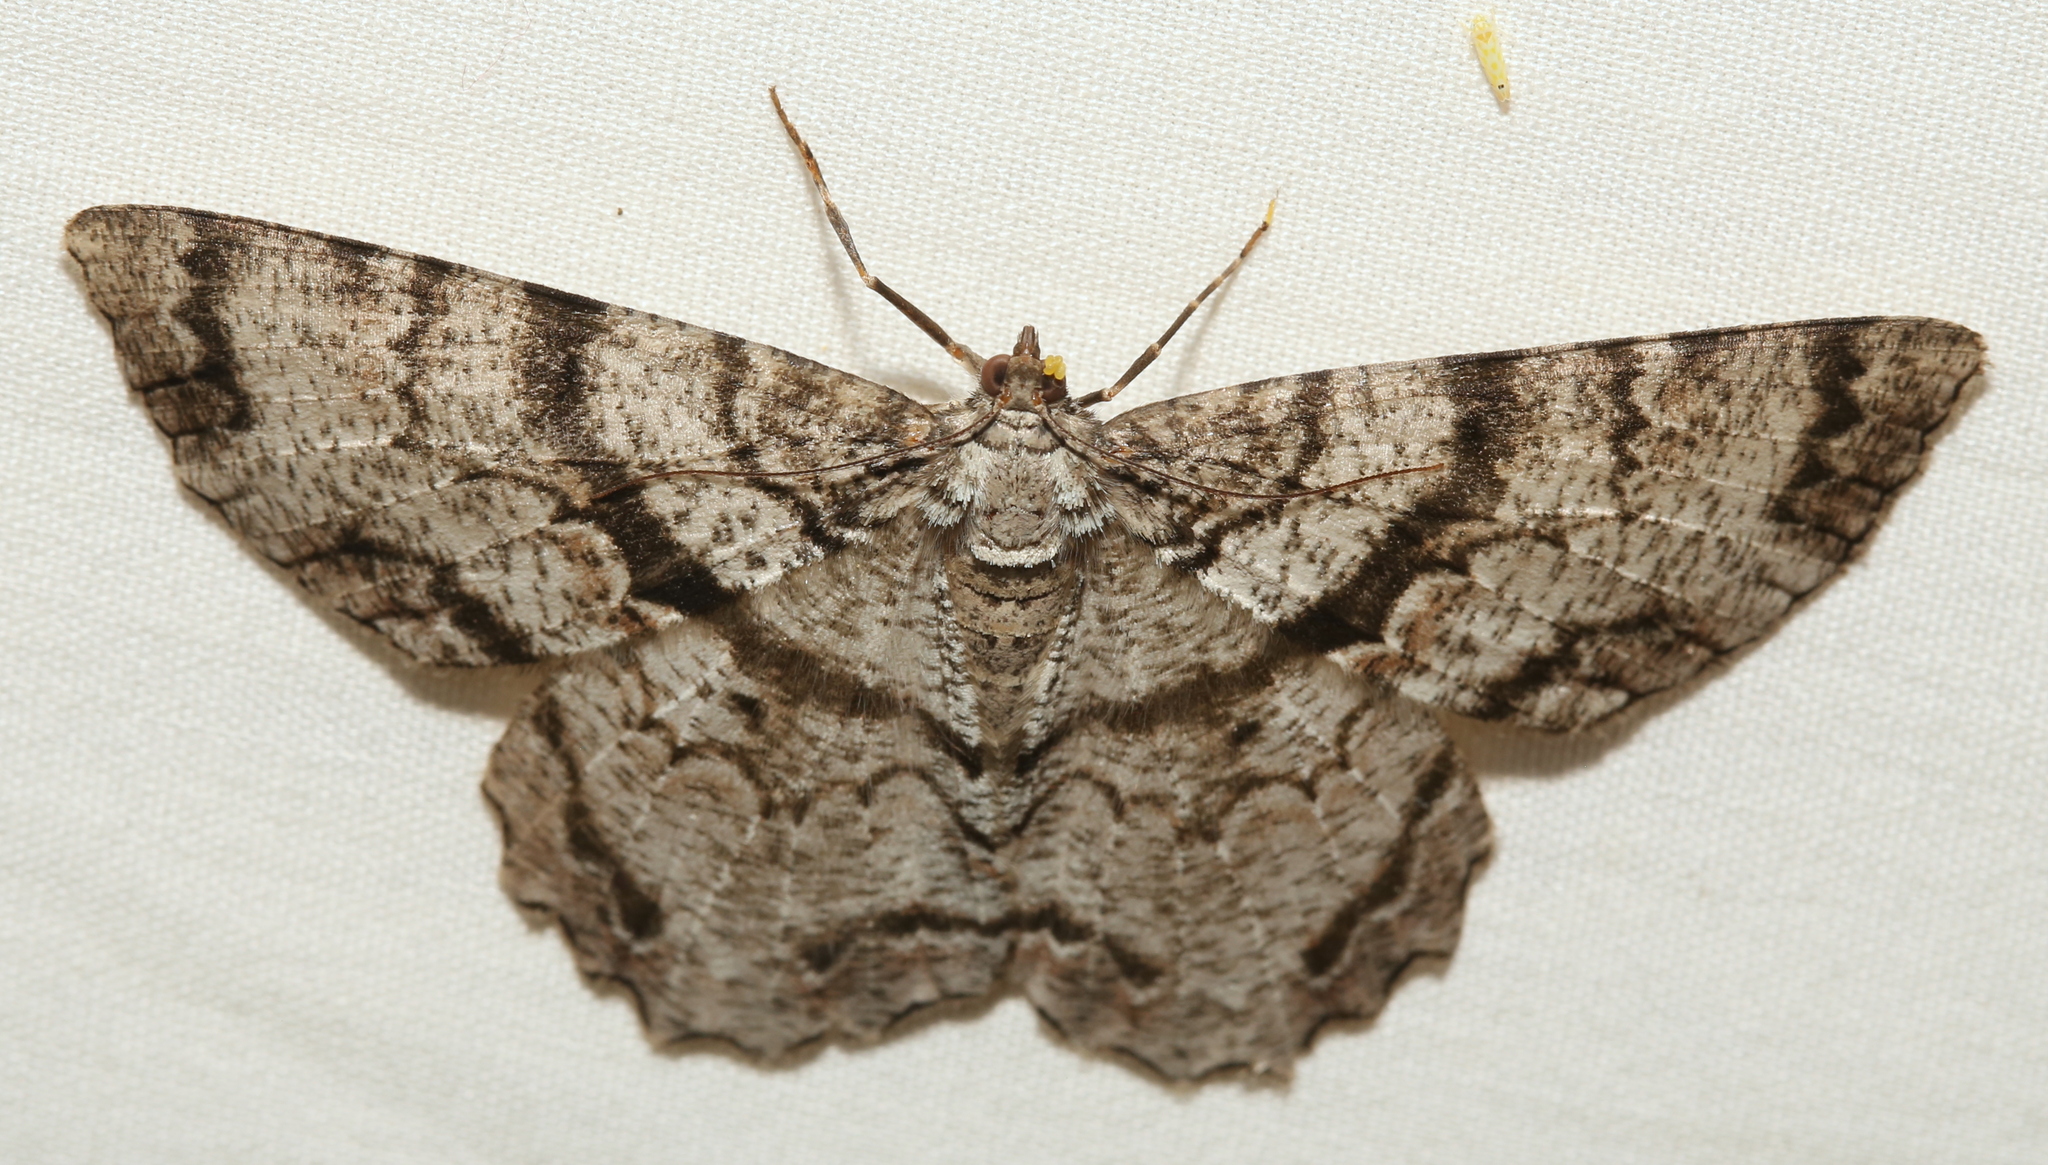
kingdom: Animalia
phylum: Arthropoda
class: Insecta
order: Lepidoptera
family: Geometridae
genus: Epimecis
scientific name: Epimecis hortaria
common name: Tulip-tree beauty
